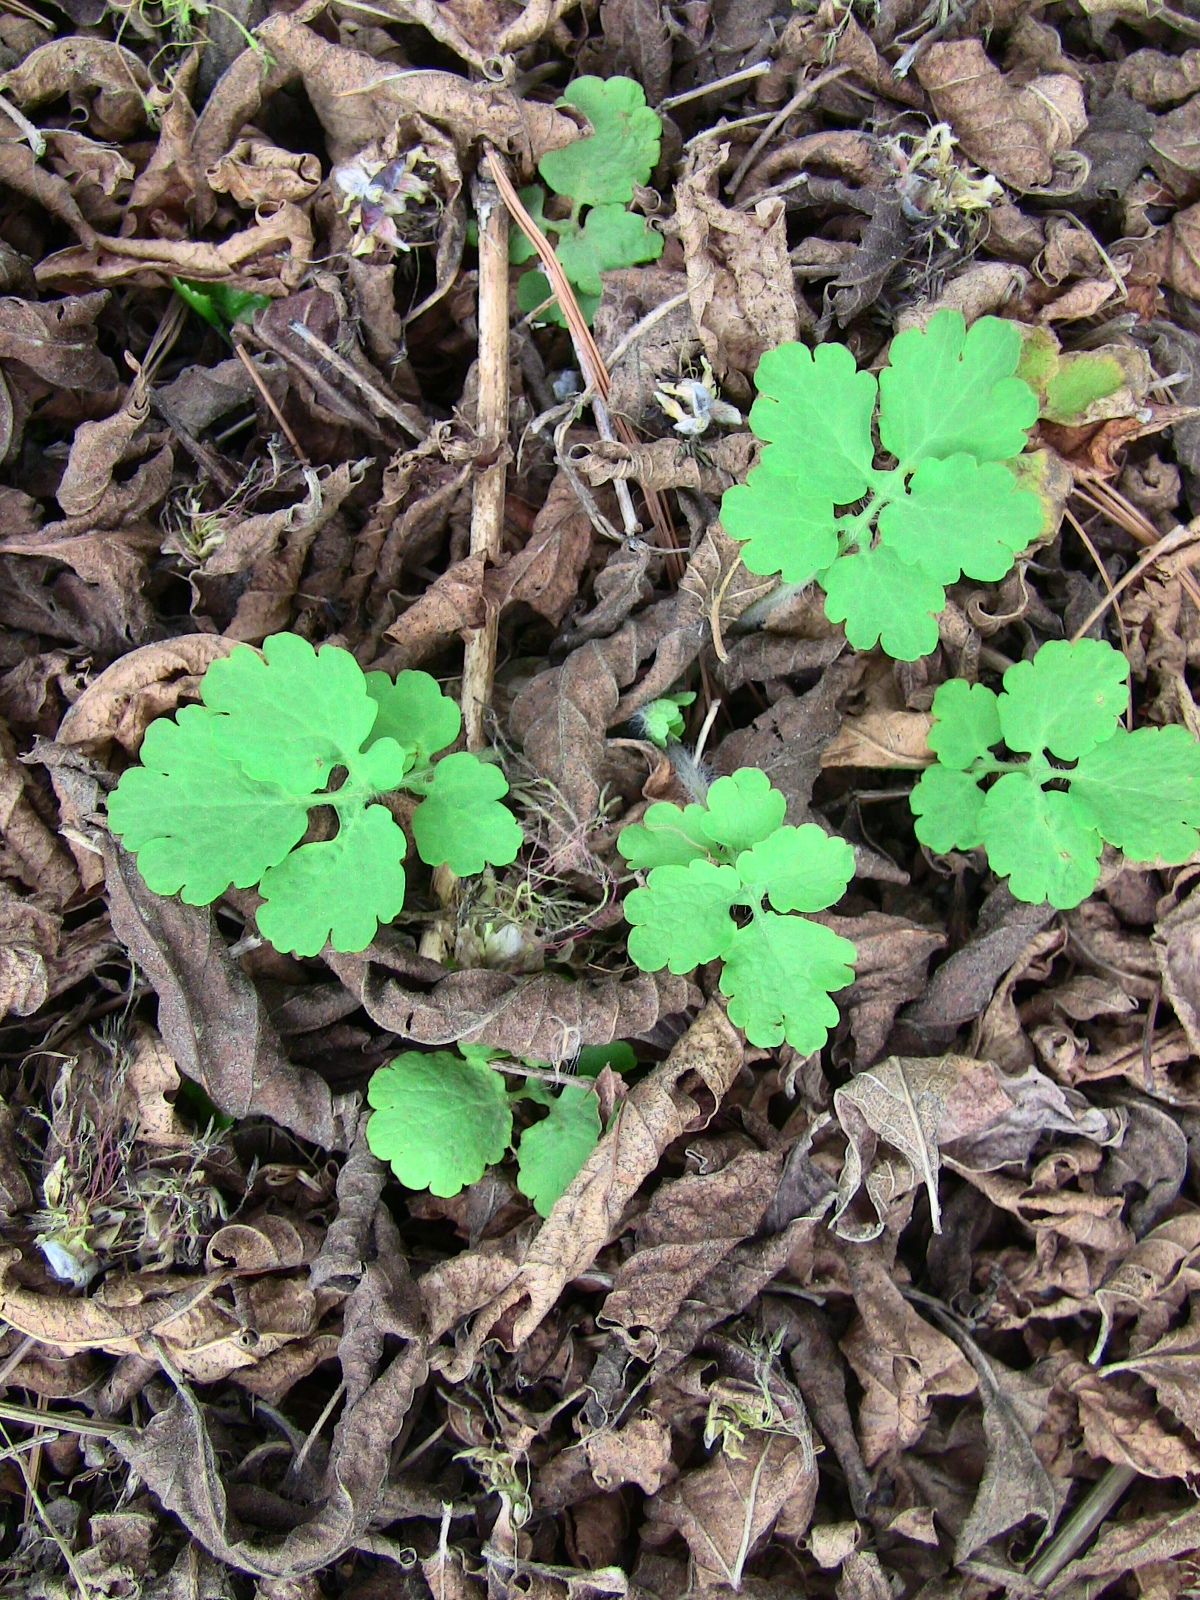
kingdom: Plantae
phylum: Tracheophyta
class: Magnoliopsida
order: Ranunculales
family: Papaveraceae
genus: Chelidonium
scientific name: Chelidonium majus
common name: Greater celandine
